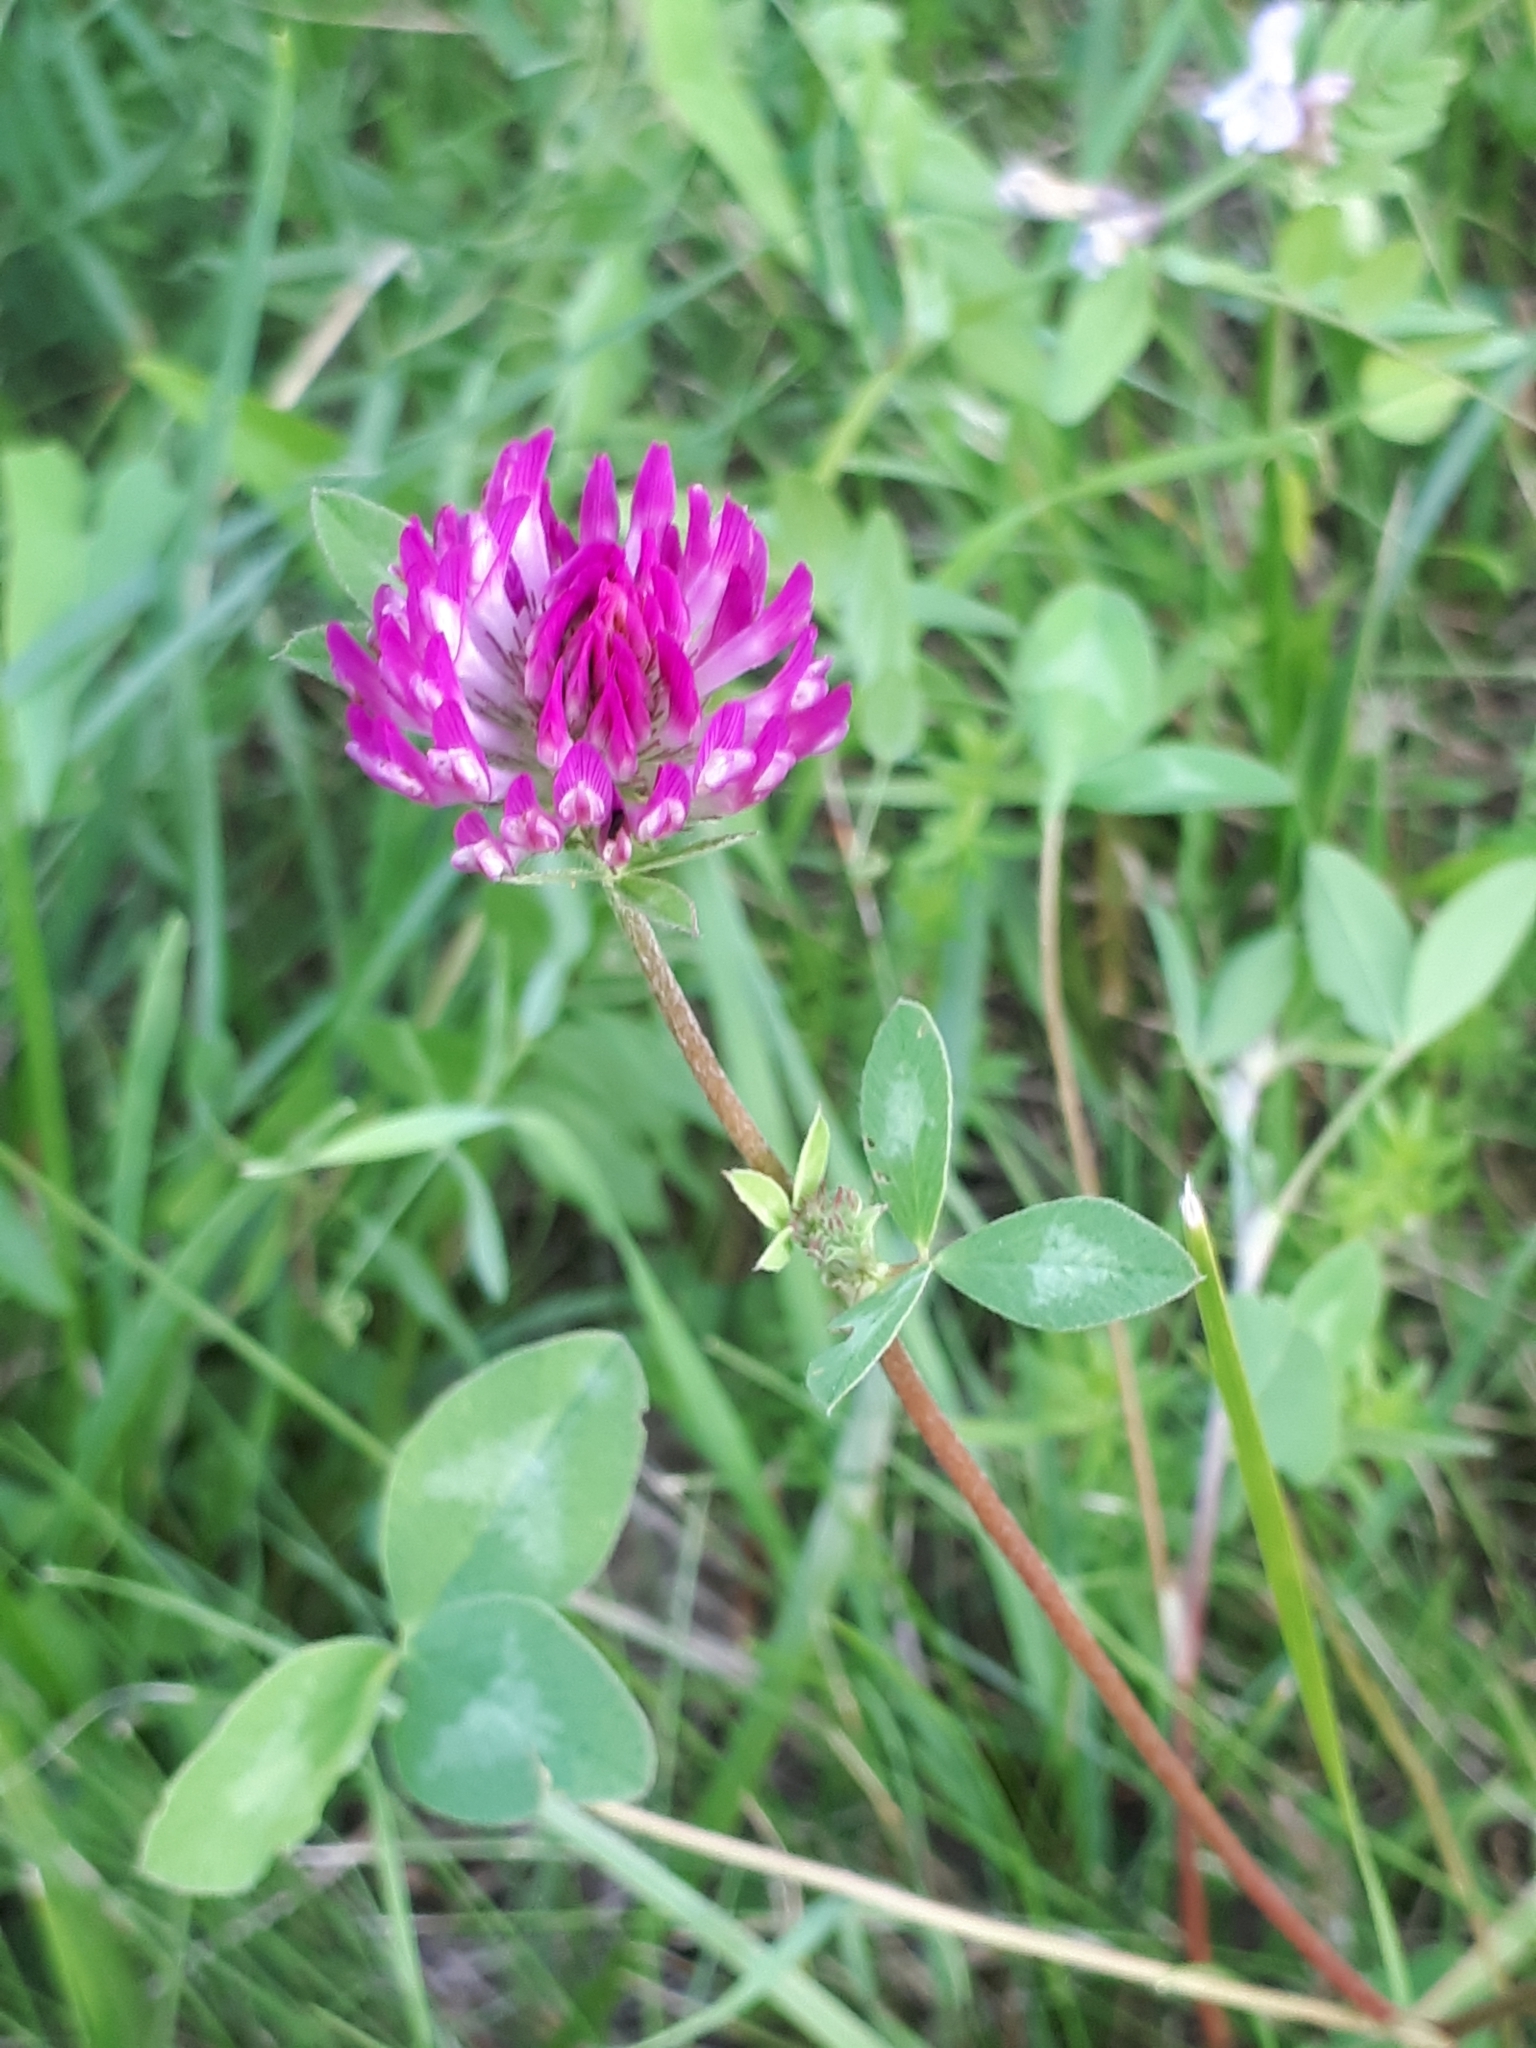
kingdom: Plantae
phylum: Tracheophyta
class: Magnoliopsida
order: Fabales
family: Fabaceae
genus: Trifolium
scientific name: Trifolium pratense
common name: Red clover
